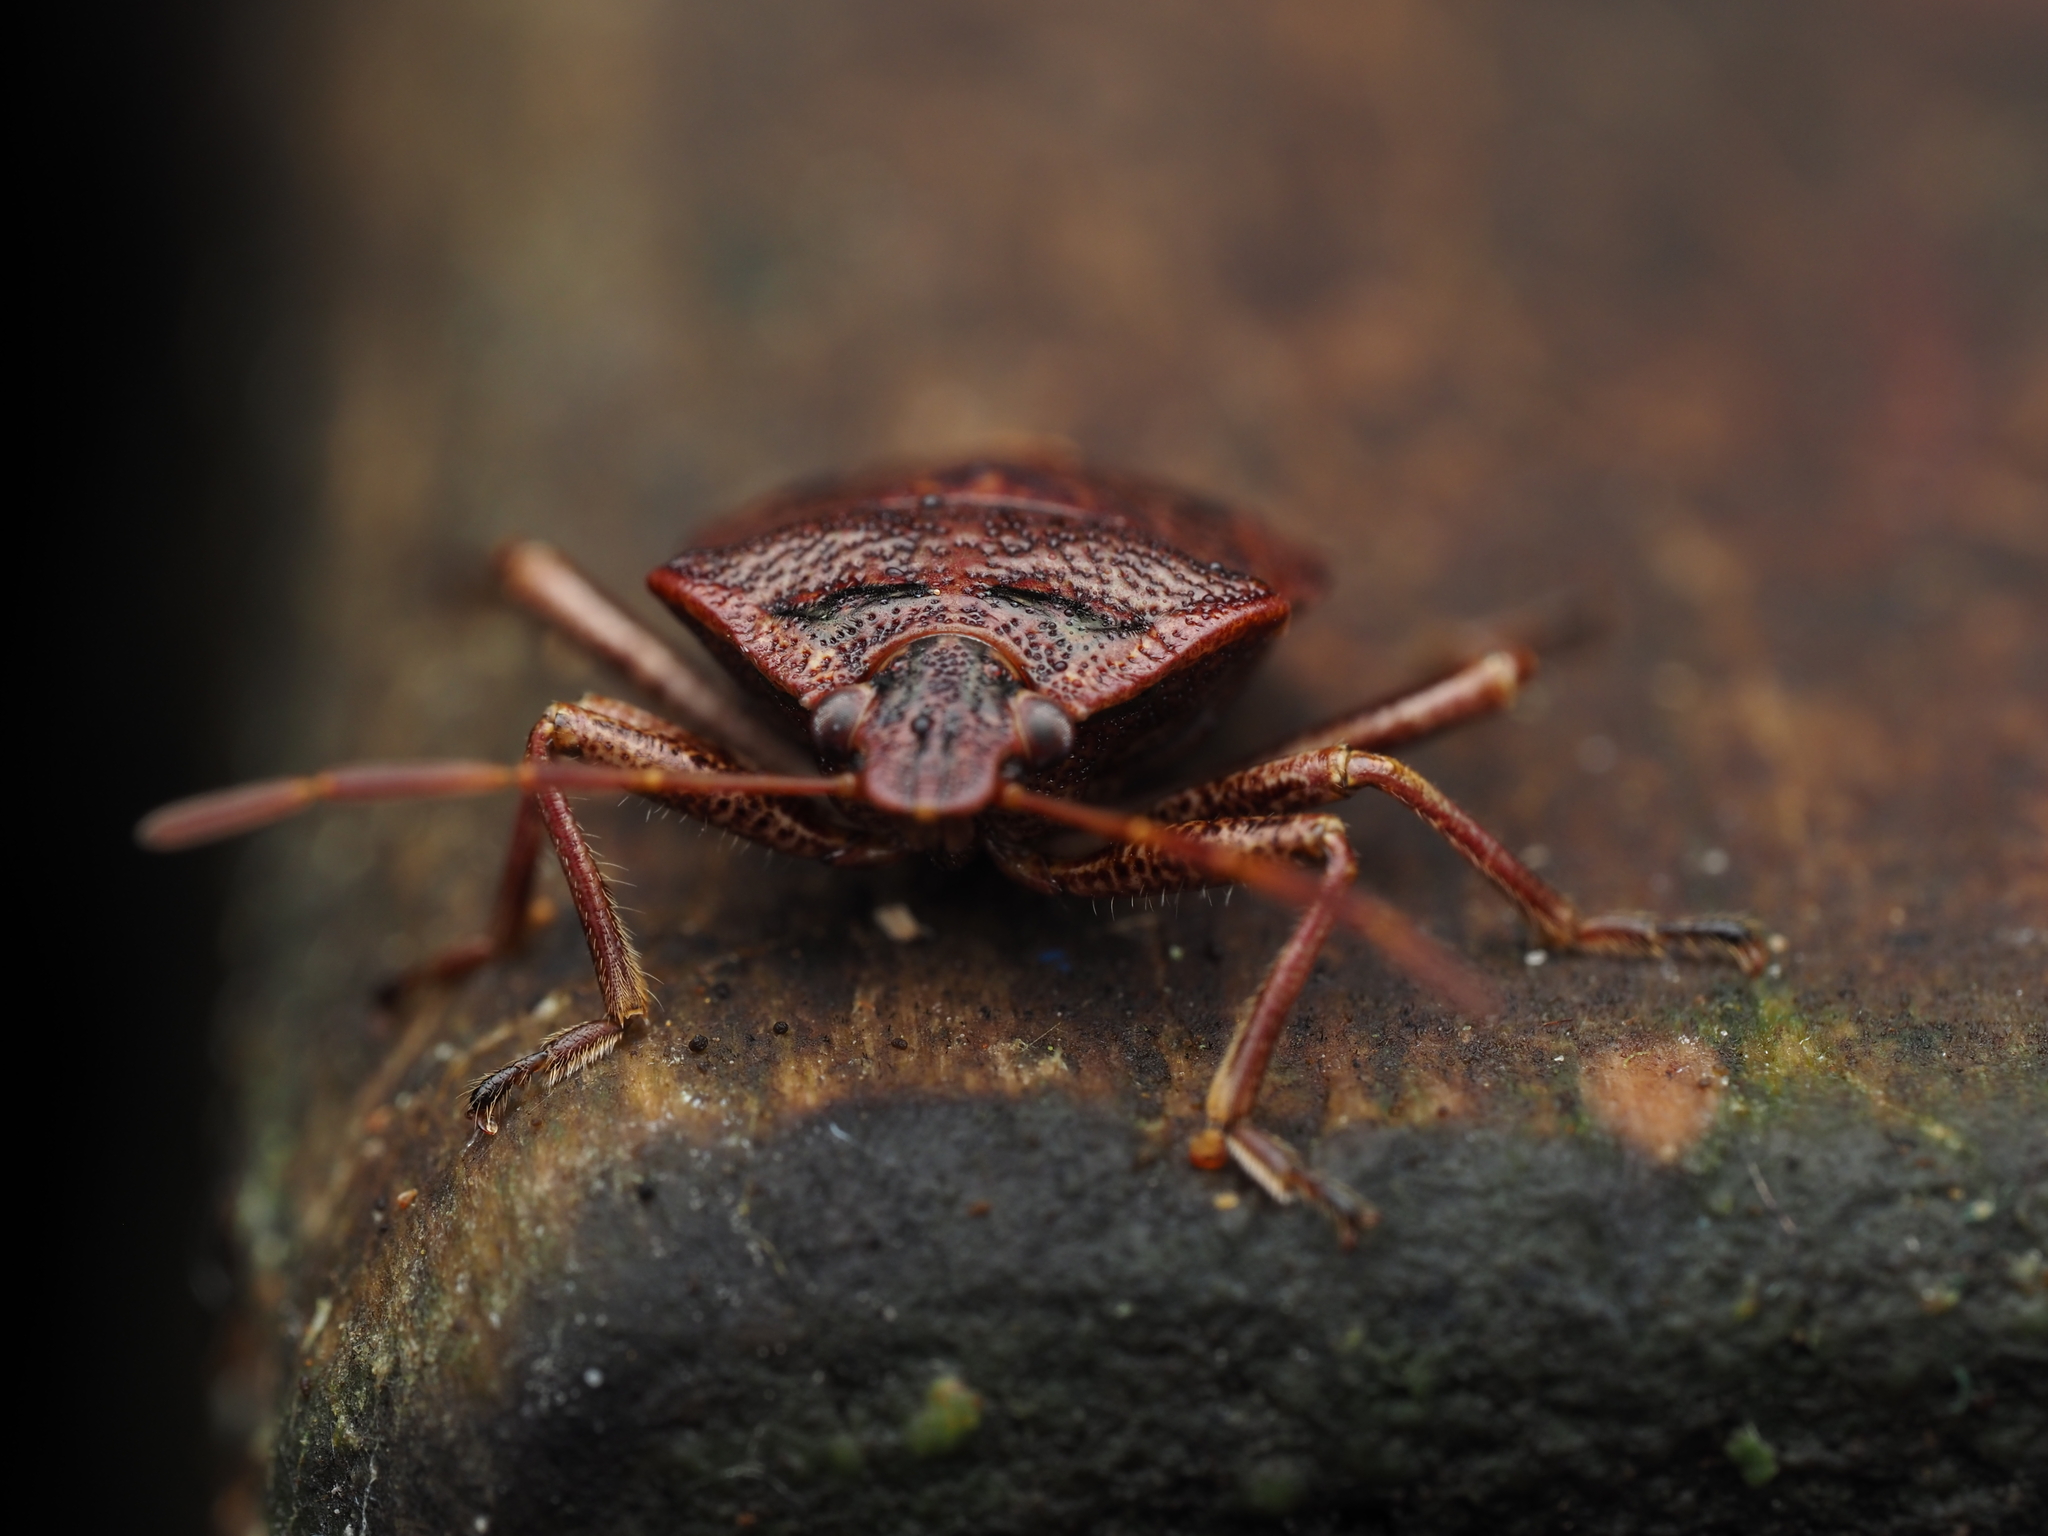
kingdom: Animalia
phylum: Arthropoda
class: Insecta
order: Hemiptera
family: Pentatomidae
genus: Cermatulus
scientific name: Cermatulus nasalis
